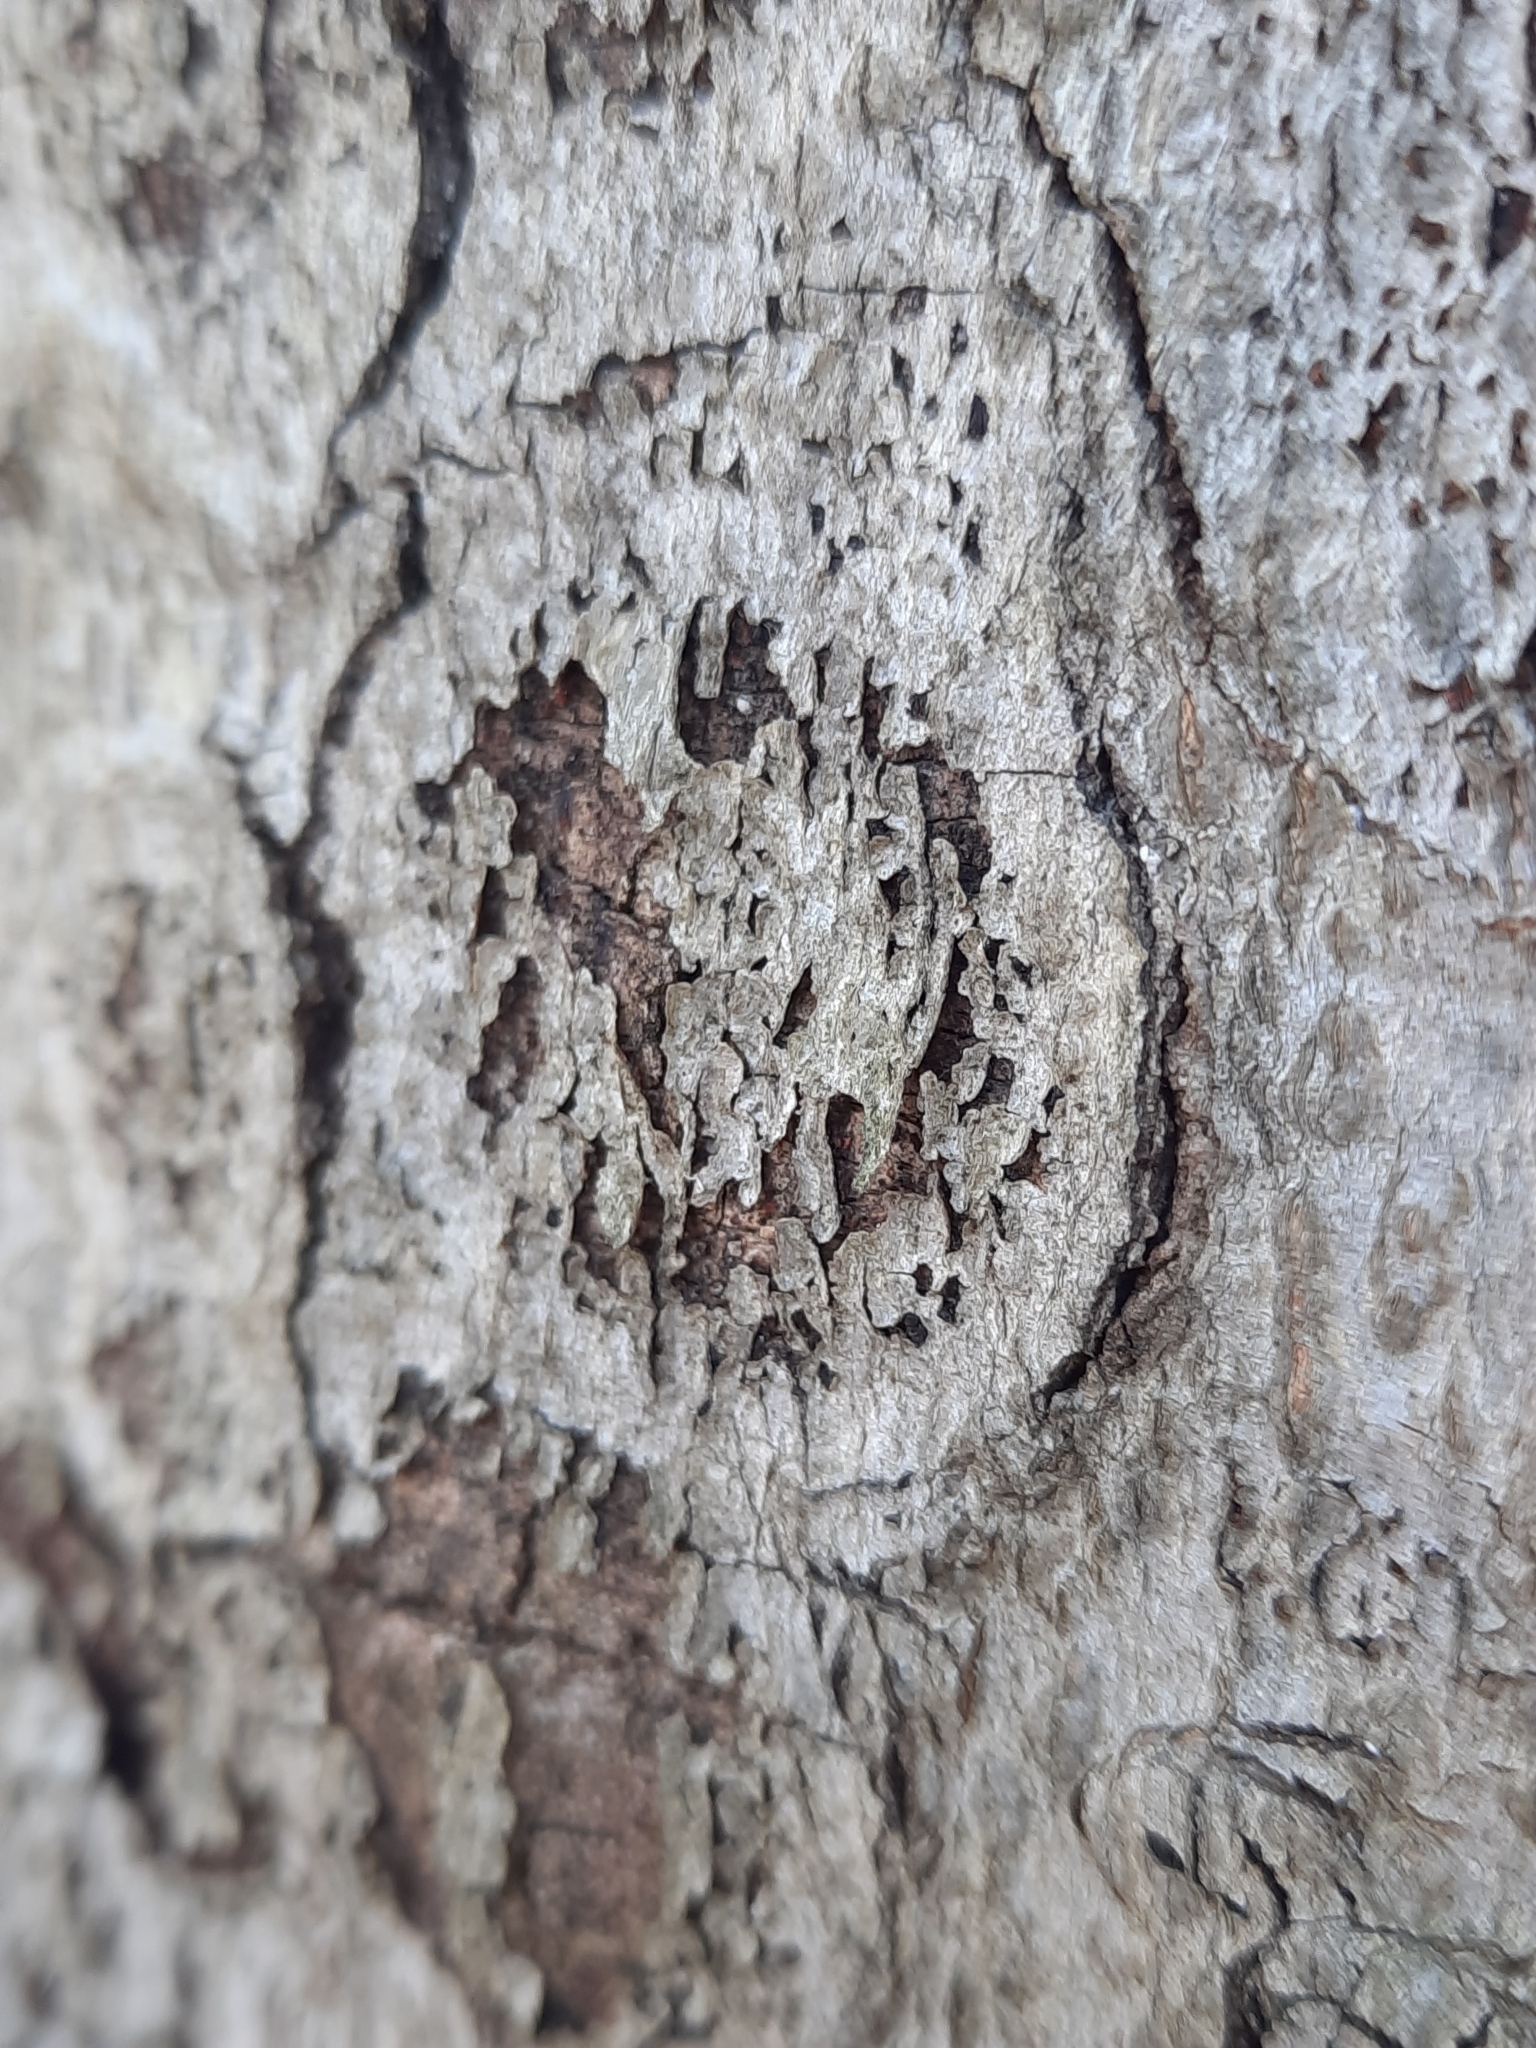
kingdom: Fungi
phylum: Ascomycota
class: Sordariomycetes
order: Hypocreales
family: Nectriaceae
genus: Neonectria
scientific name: Neonectria faginata
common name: Beech bark canker
